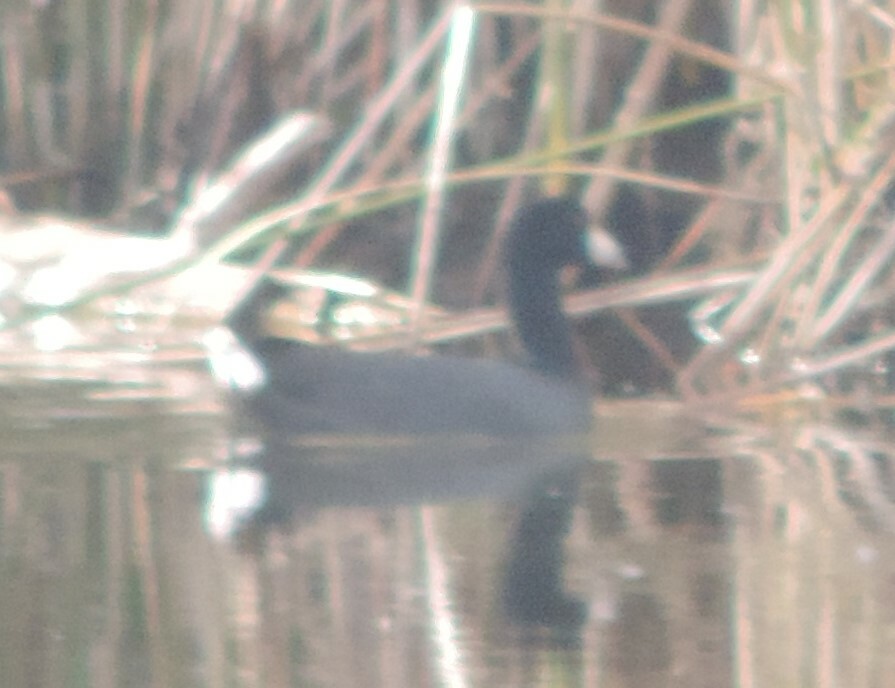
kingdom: Animalia
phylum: Chordata
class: Aves
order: Gruiformes
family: Rallidae
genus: Fulica
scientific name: Fulica americana
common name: American coot
